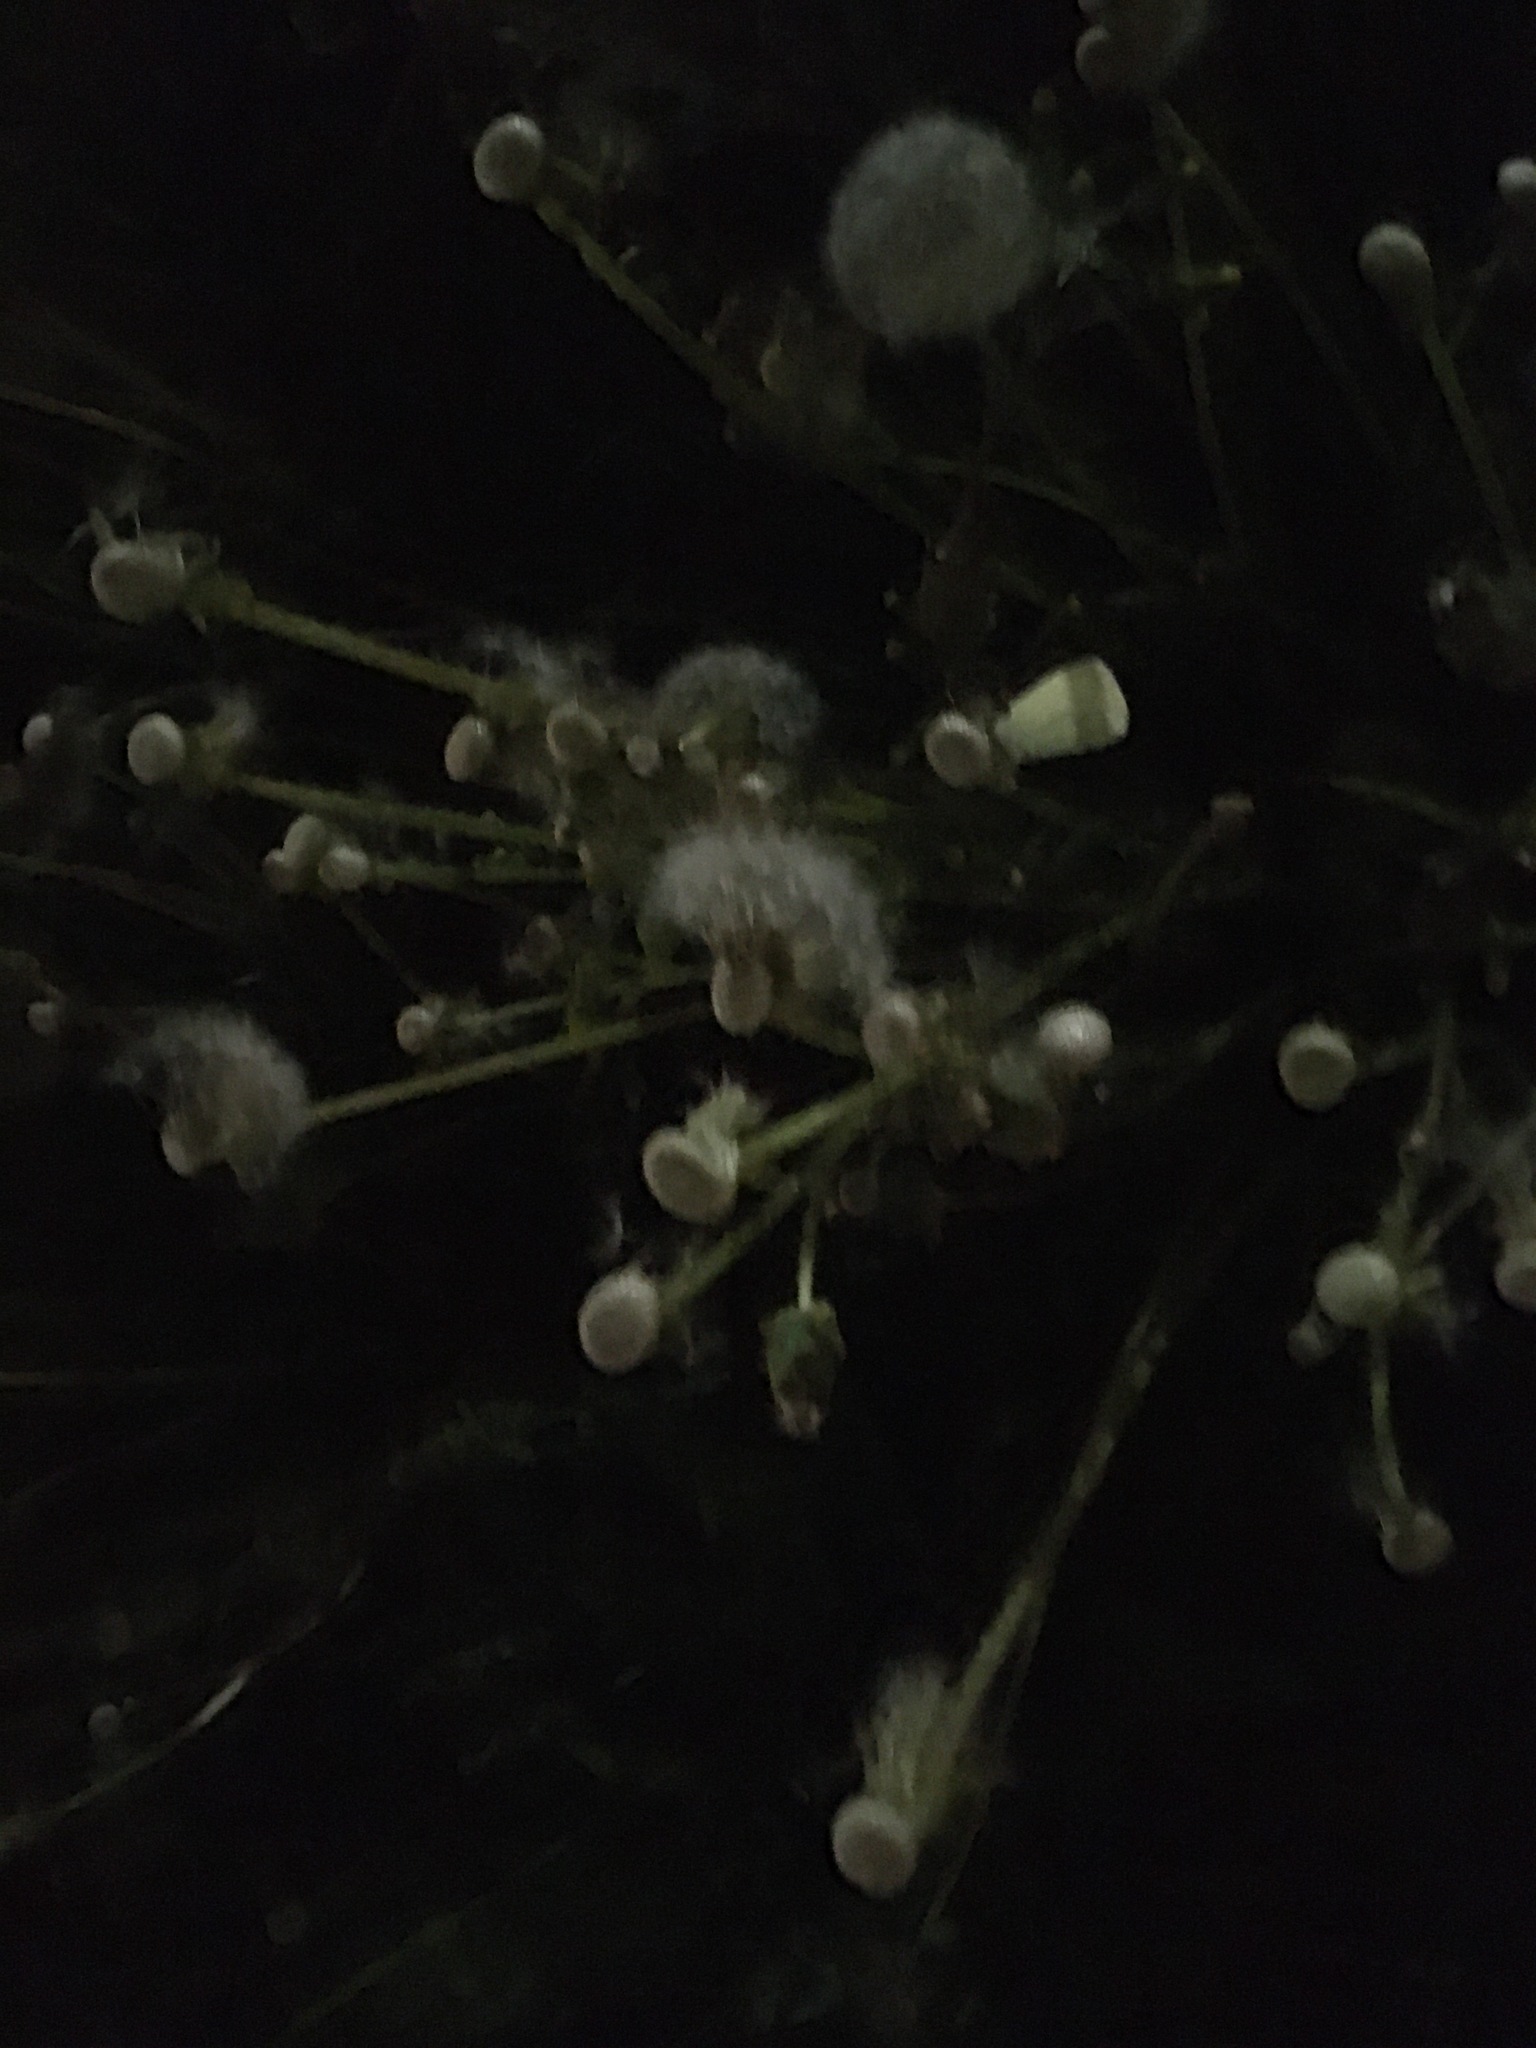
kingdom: Plantae
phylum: Tracheophyta
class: Magnoliopsida
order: Asterales
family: Asteraceae
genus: Taraxacum
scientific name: Taraxacum officinale
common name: Common dandelion
